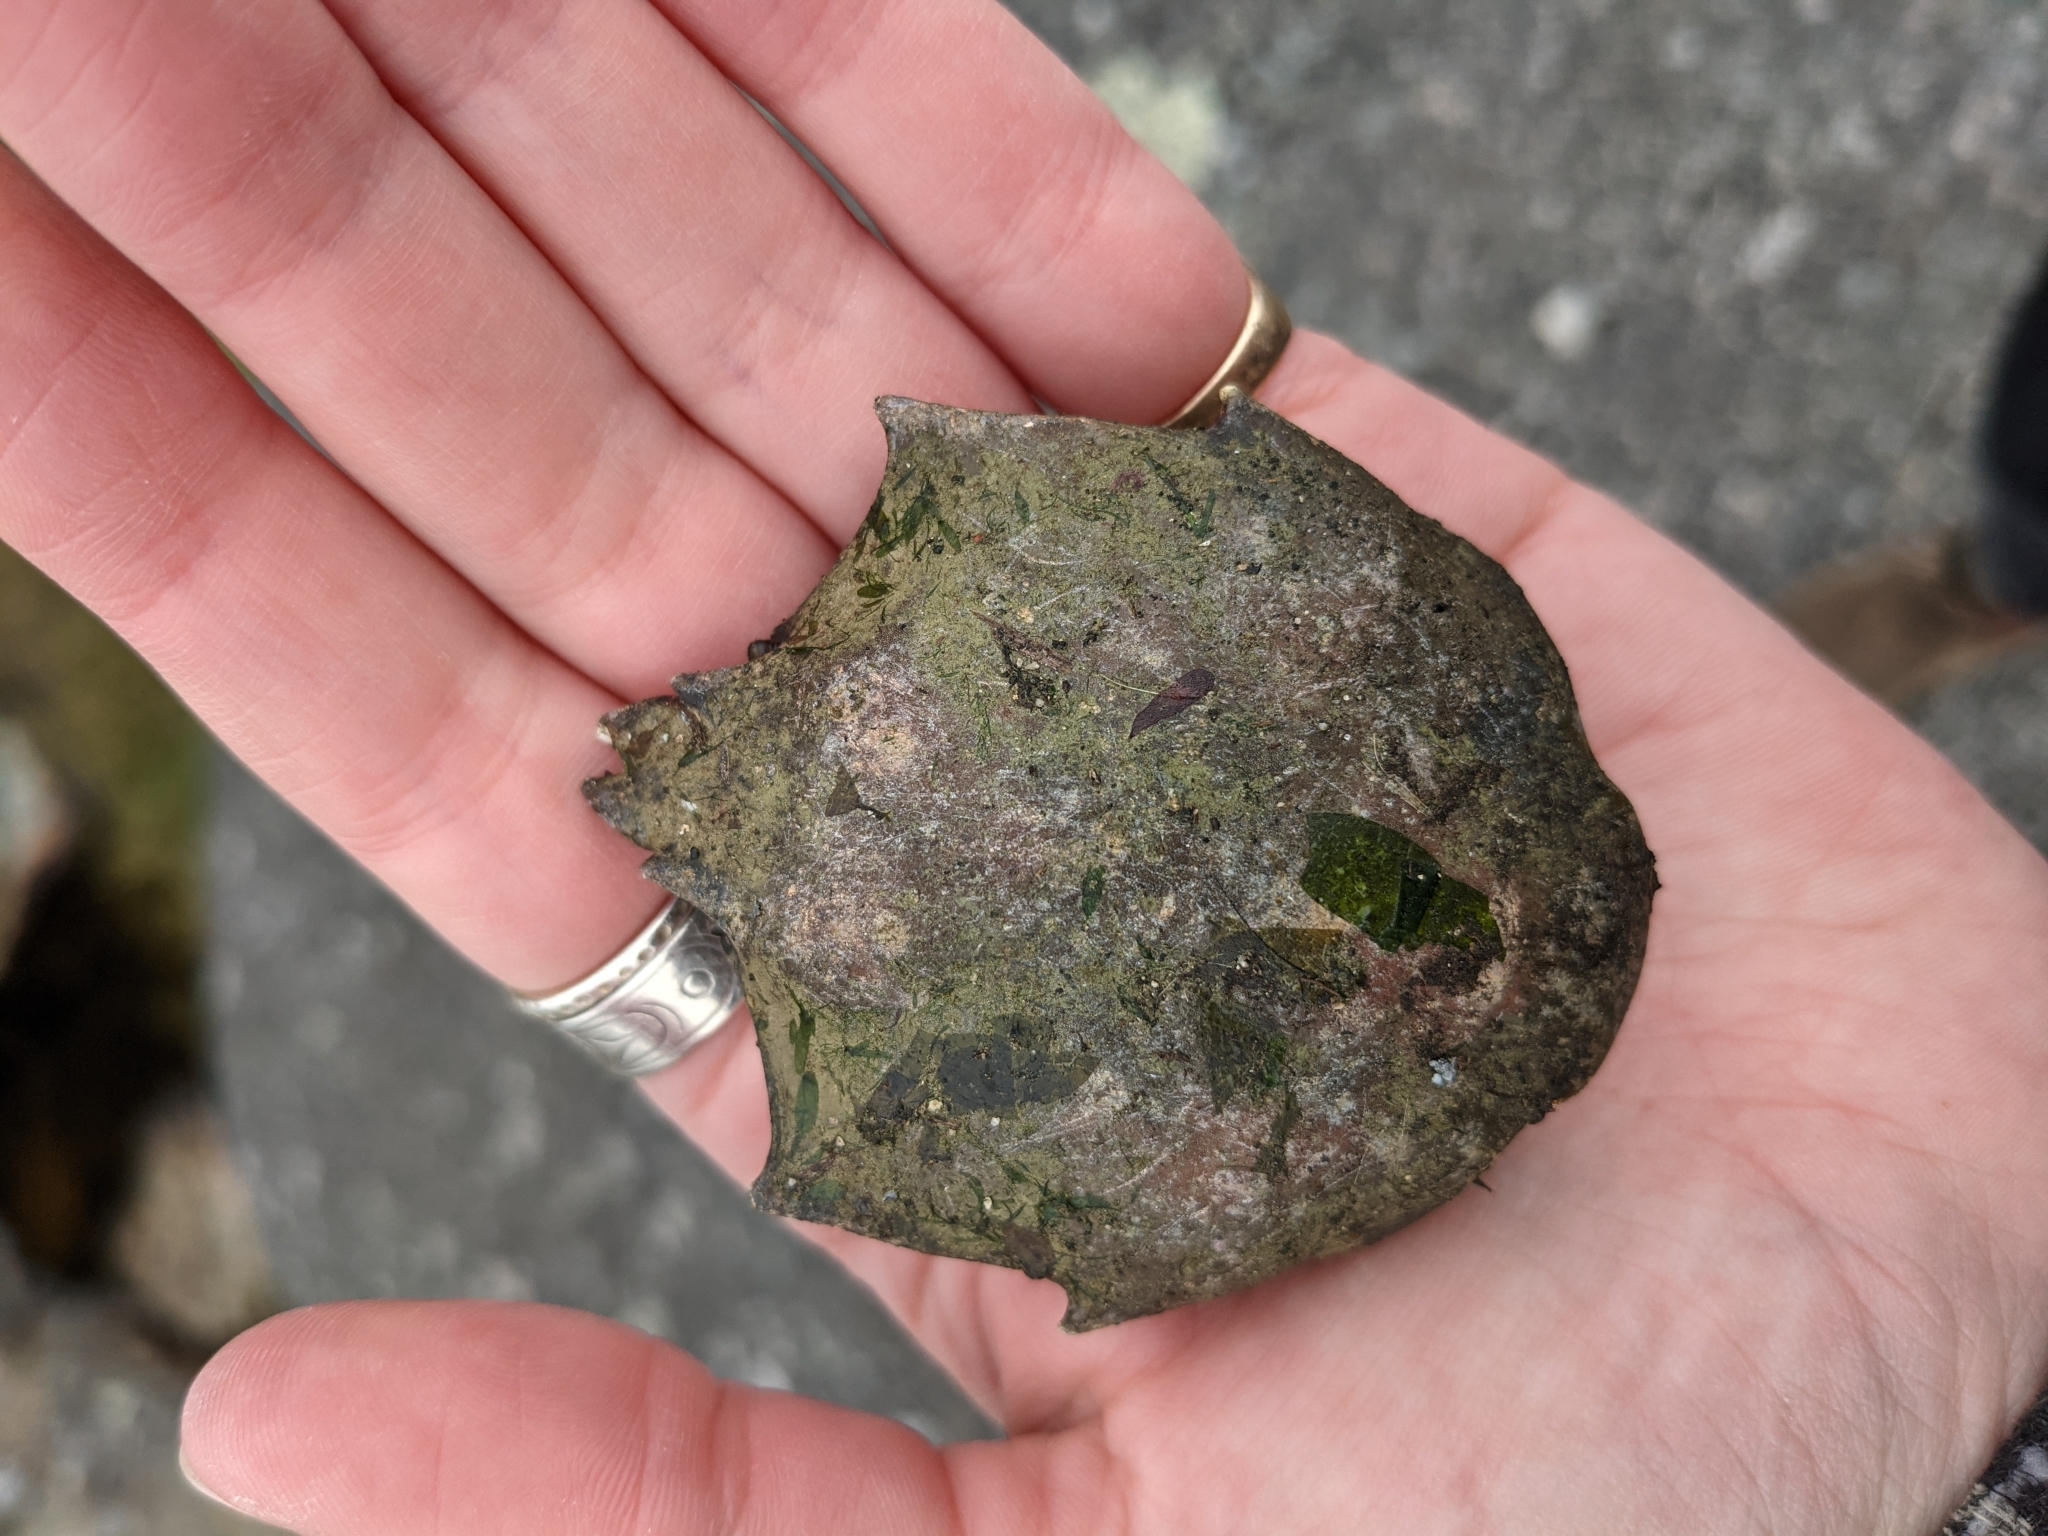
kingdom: Animalia
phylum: Arthropoda
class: Malacostraca
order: Decapoda
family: Epialtidae
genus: Pugettia
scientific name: Pugettia producta
